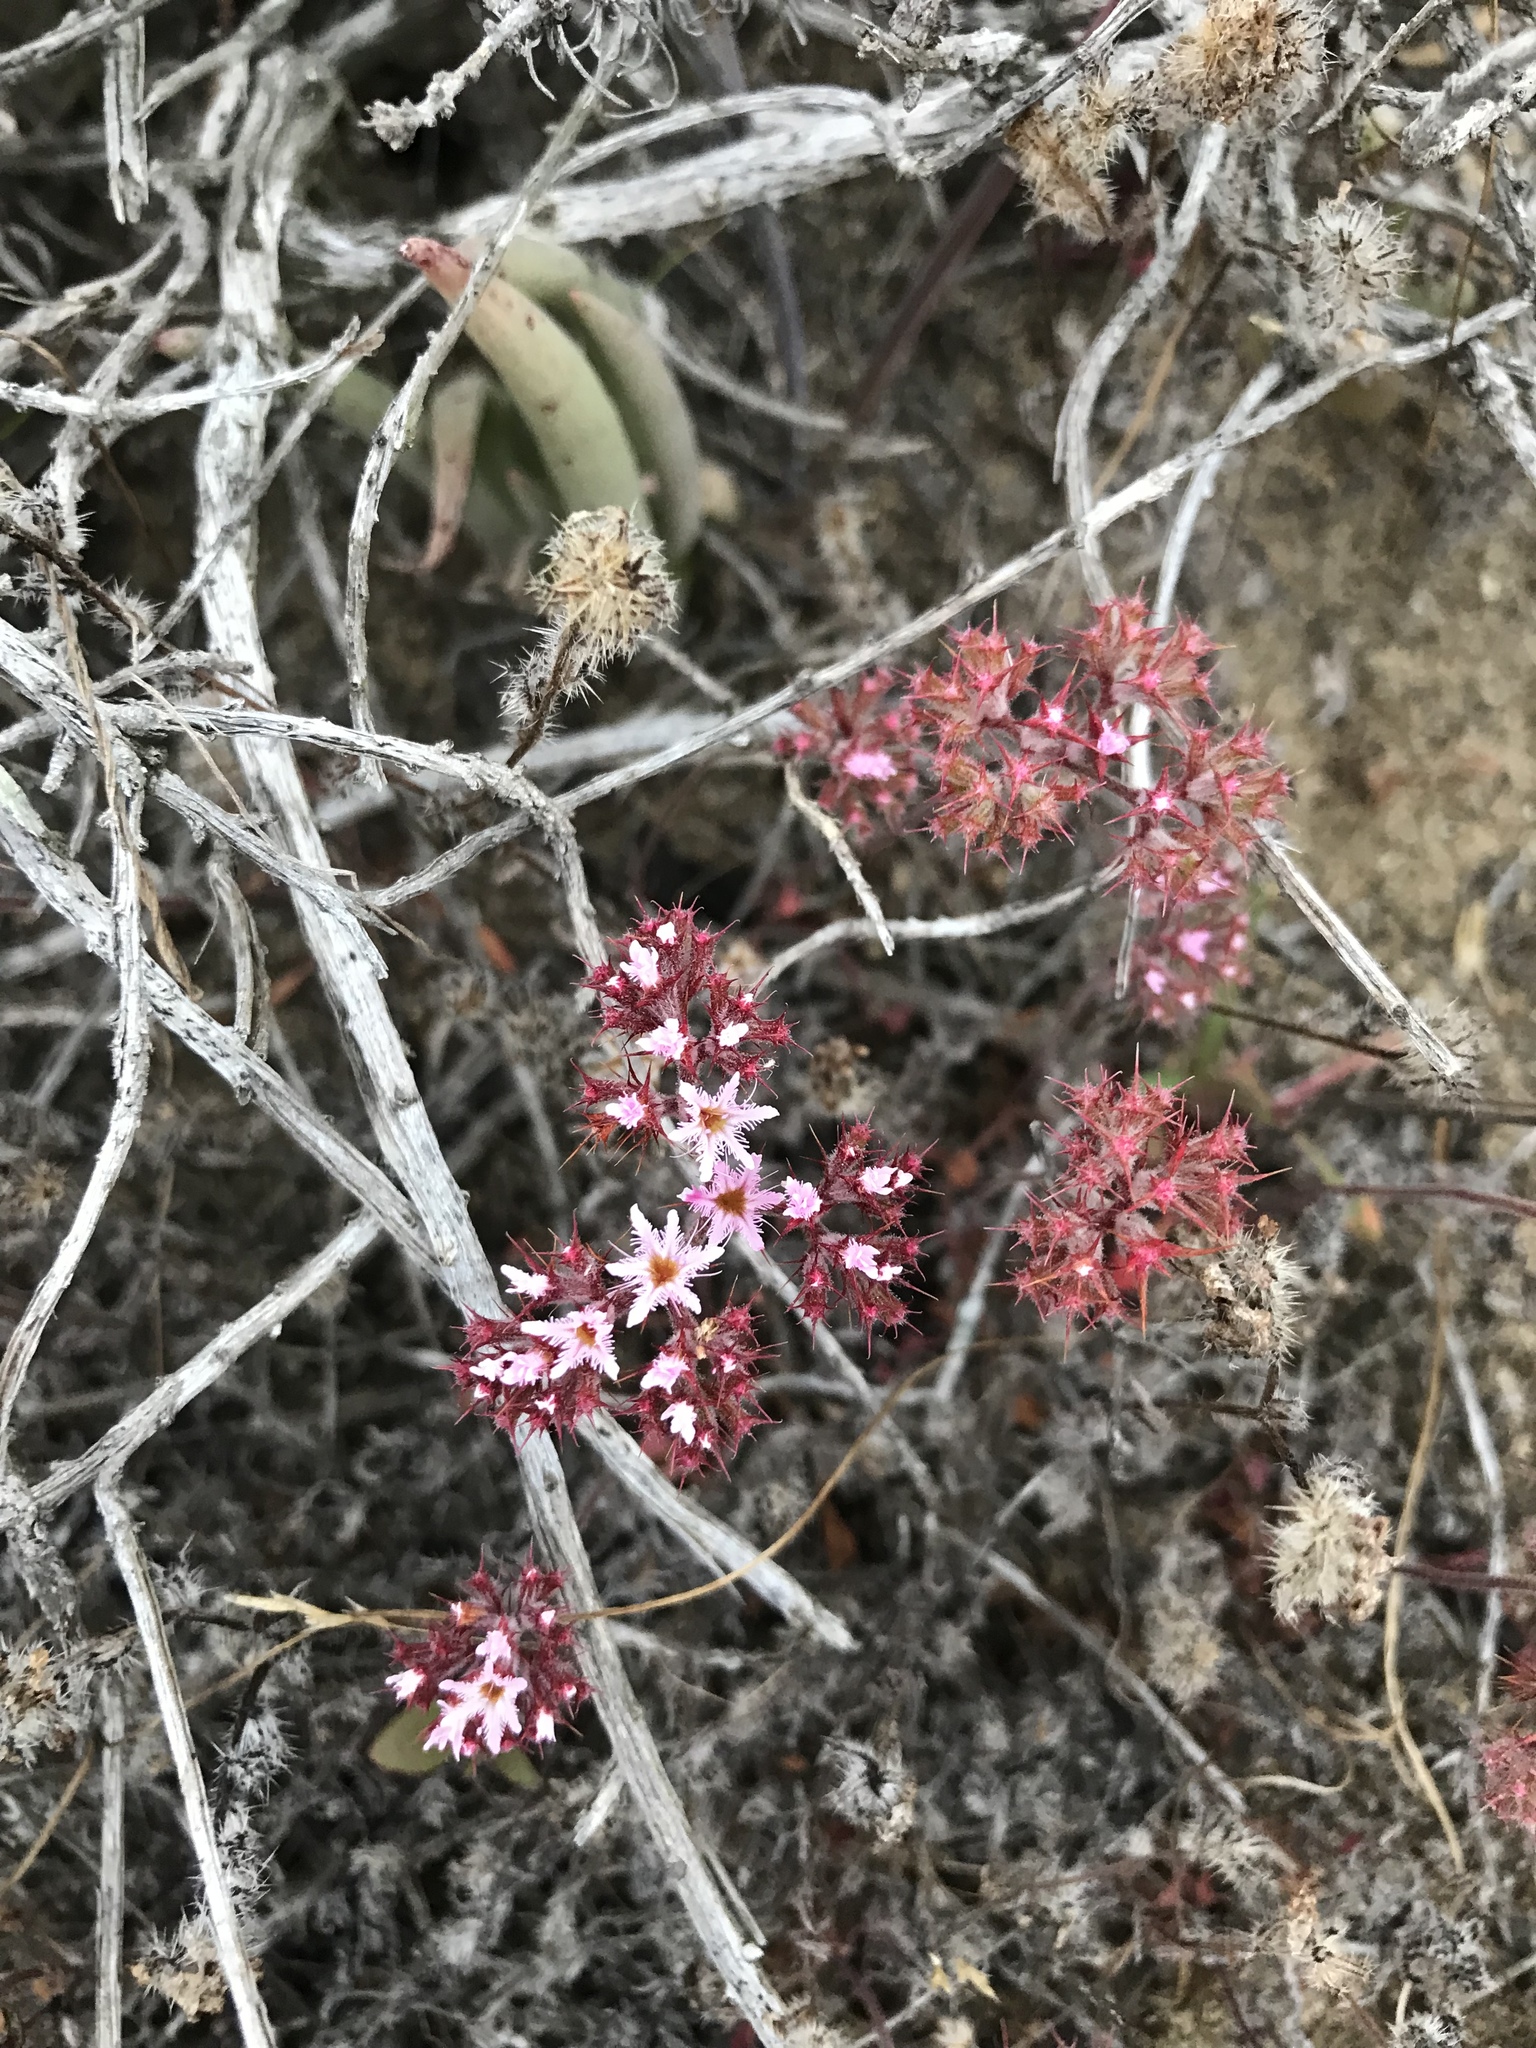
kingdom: Plantae
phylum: Tracheophyta
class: Magnoliopsida
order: Caryophyllales
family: Polygonaceae
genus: Chorizanthe
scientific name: Chorizanthe fimbriata
